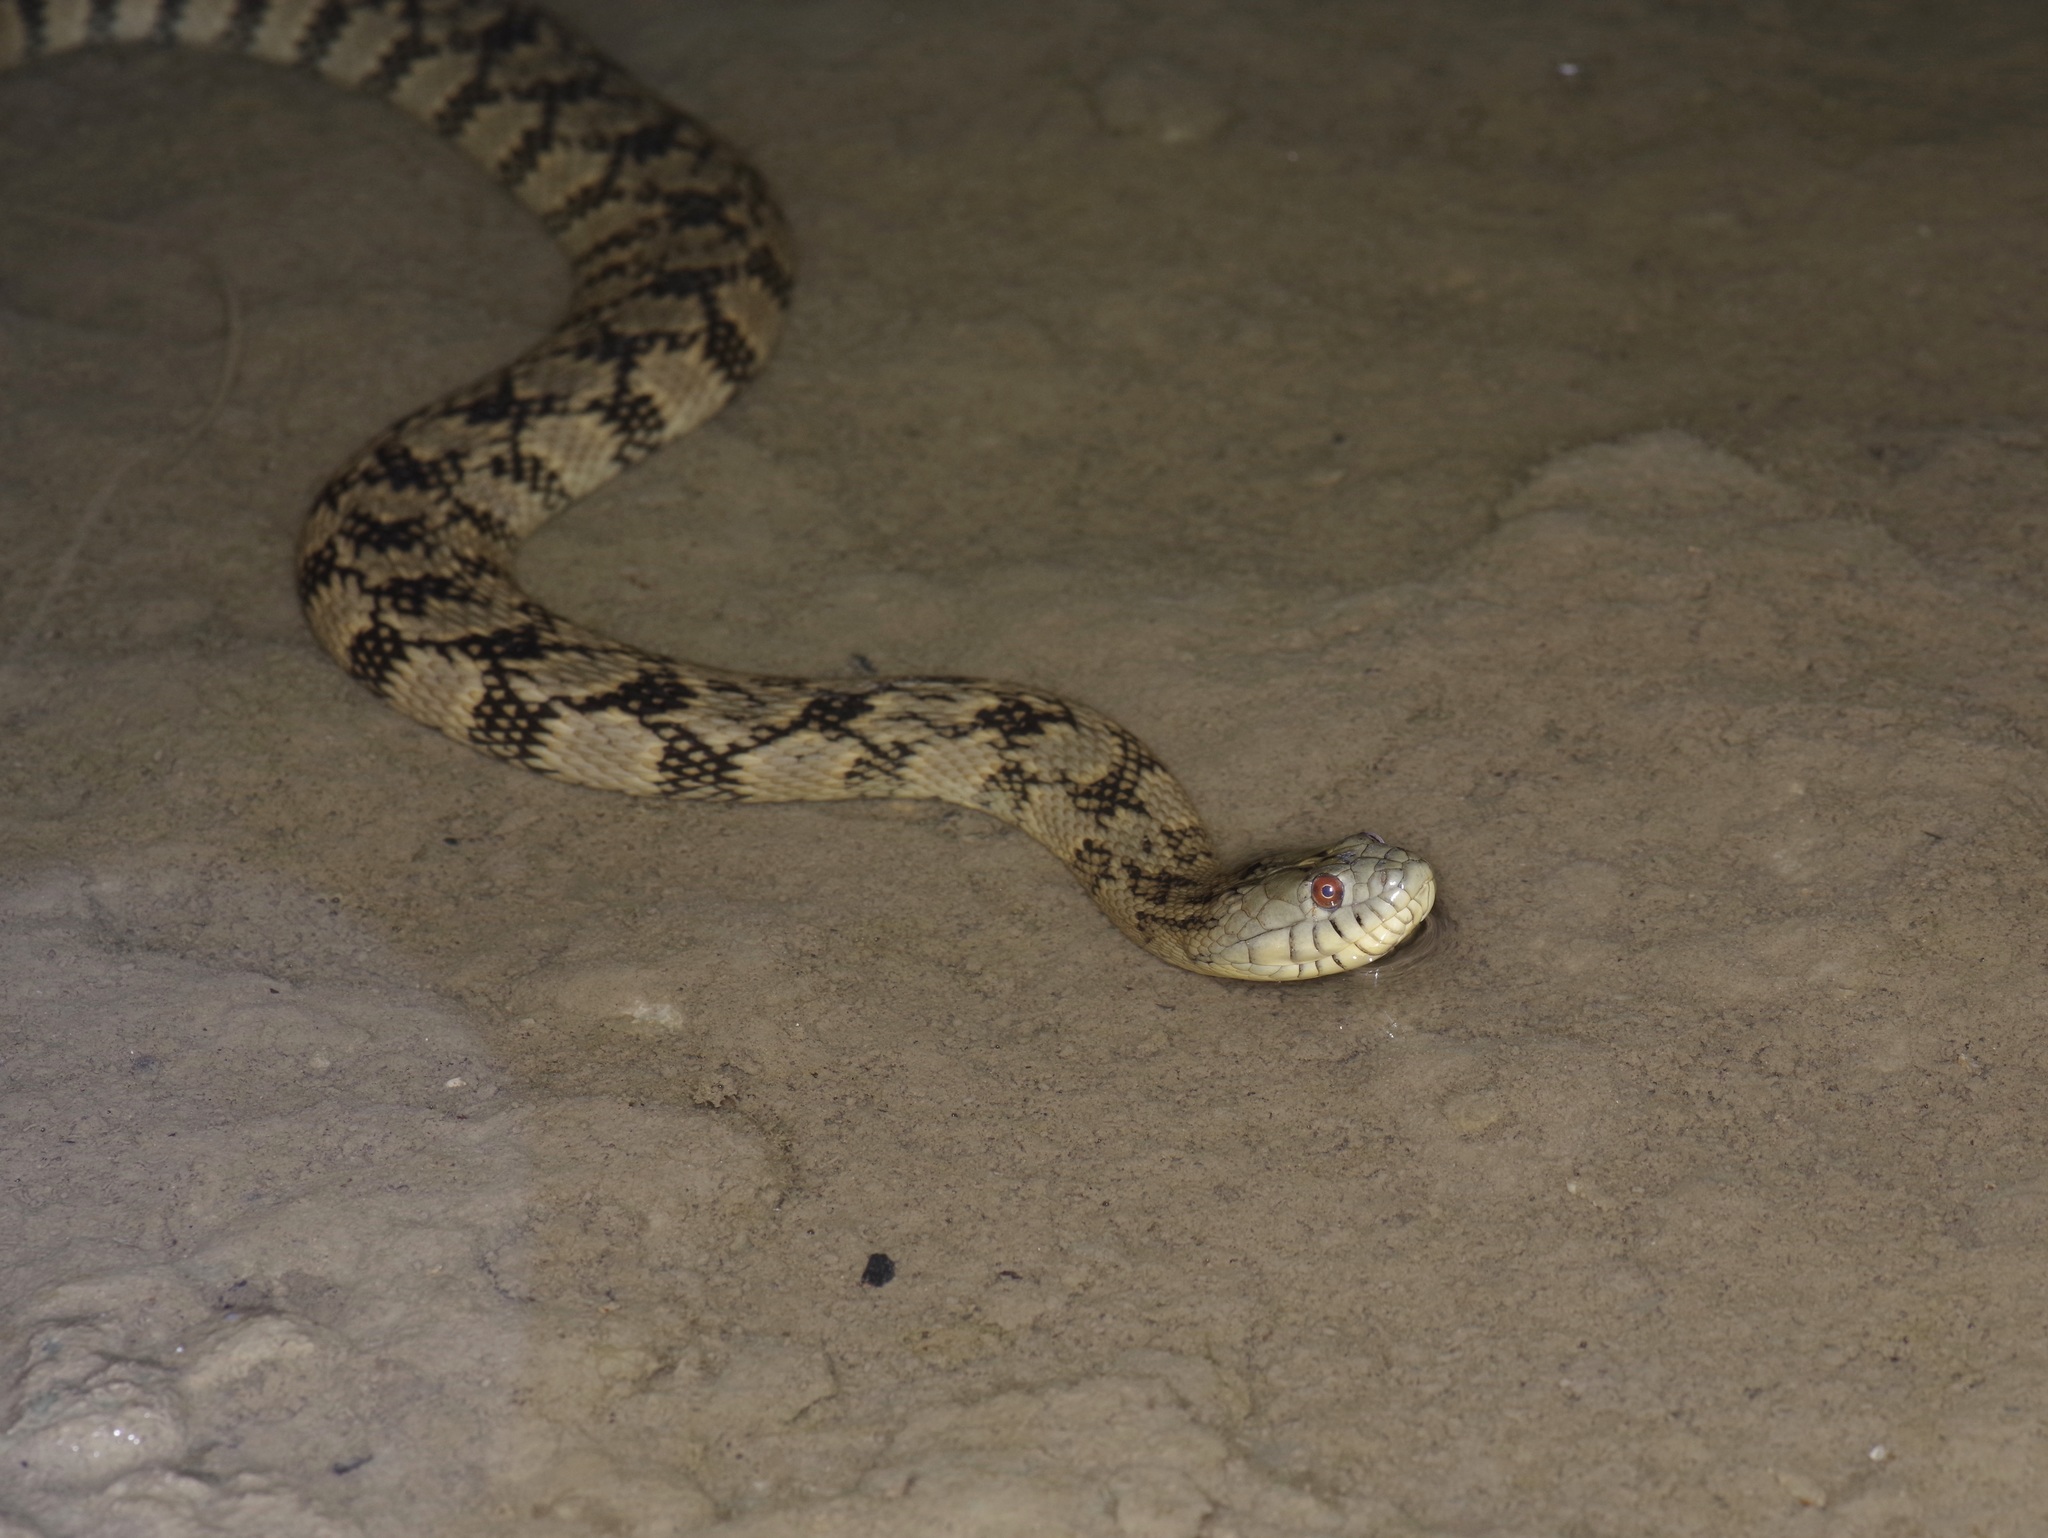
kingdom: Animalia
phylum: Chordata
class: Squamata
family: Colubridae
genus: Nerodia
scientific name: Nerodia rhombifer
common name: Diamondback water snake
